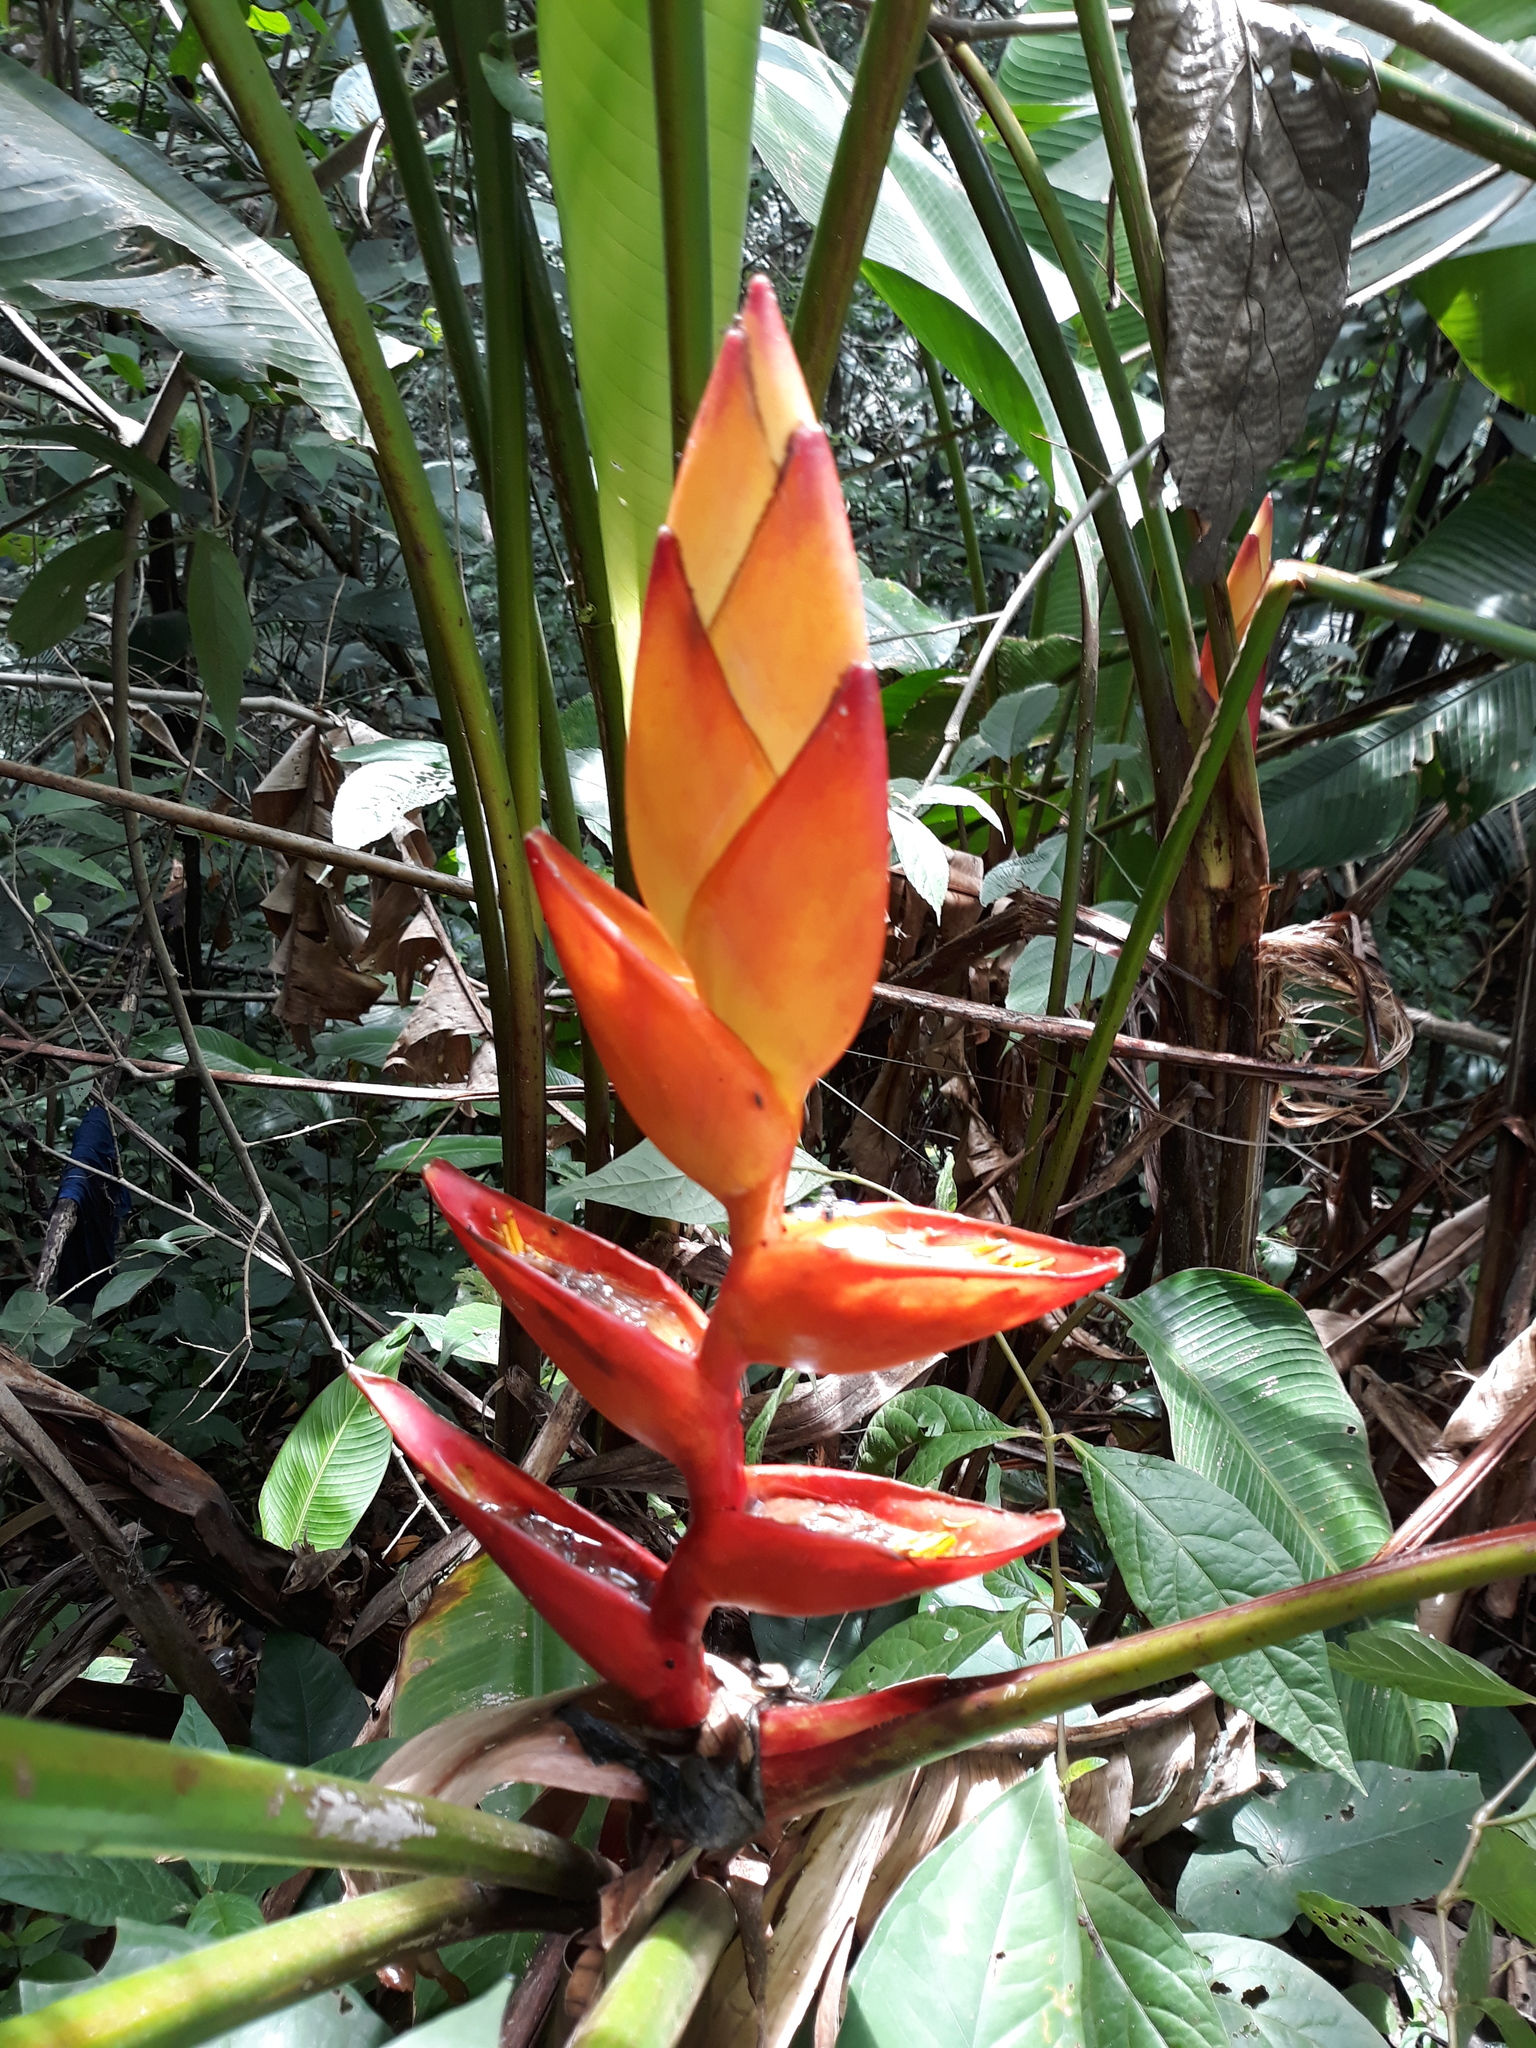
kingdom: Plantae
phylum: Tracheophyta
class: Liliopsida
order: Zingiberales
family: Heliconiaceae
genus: Heliconia
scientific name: Heliconia uxpanapensis
